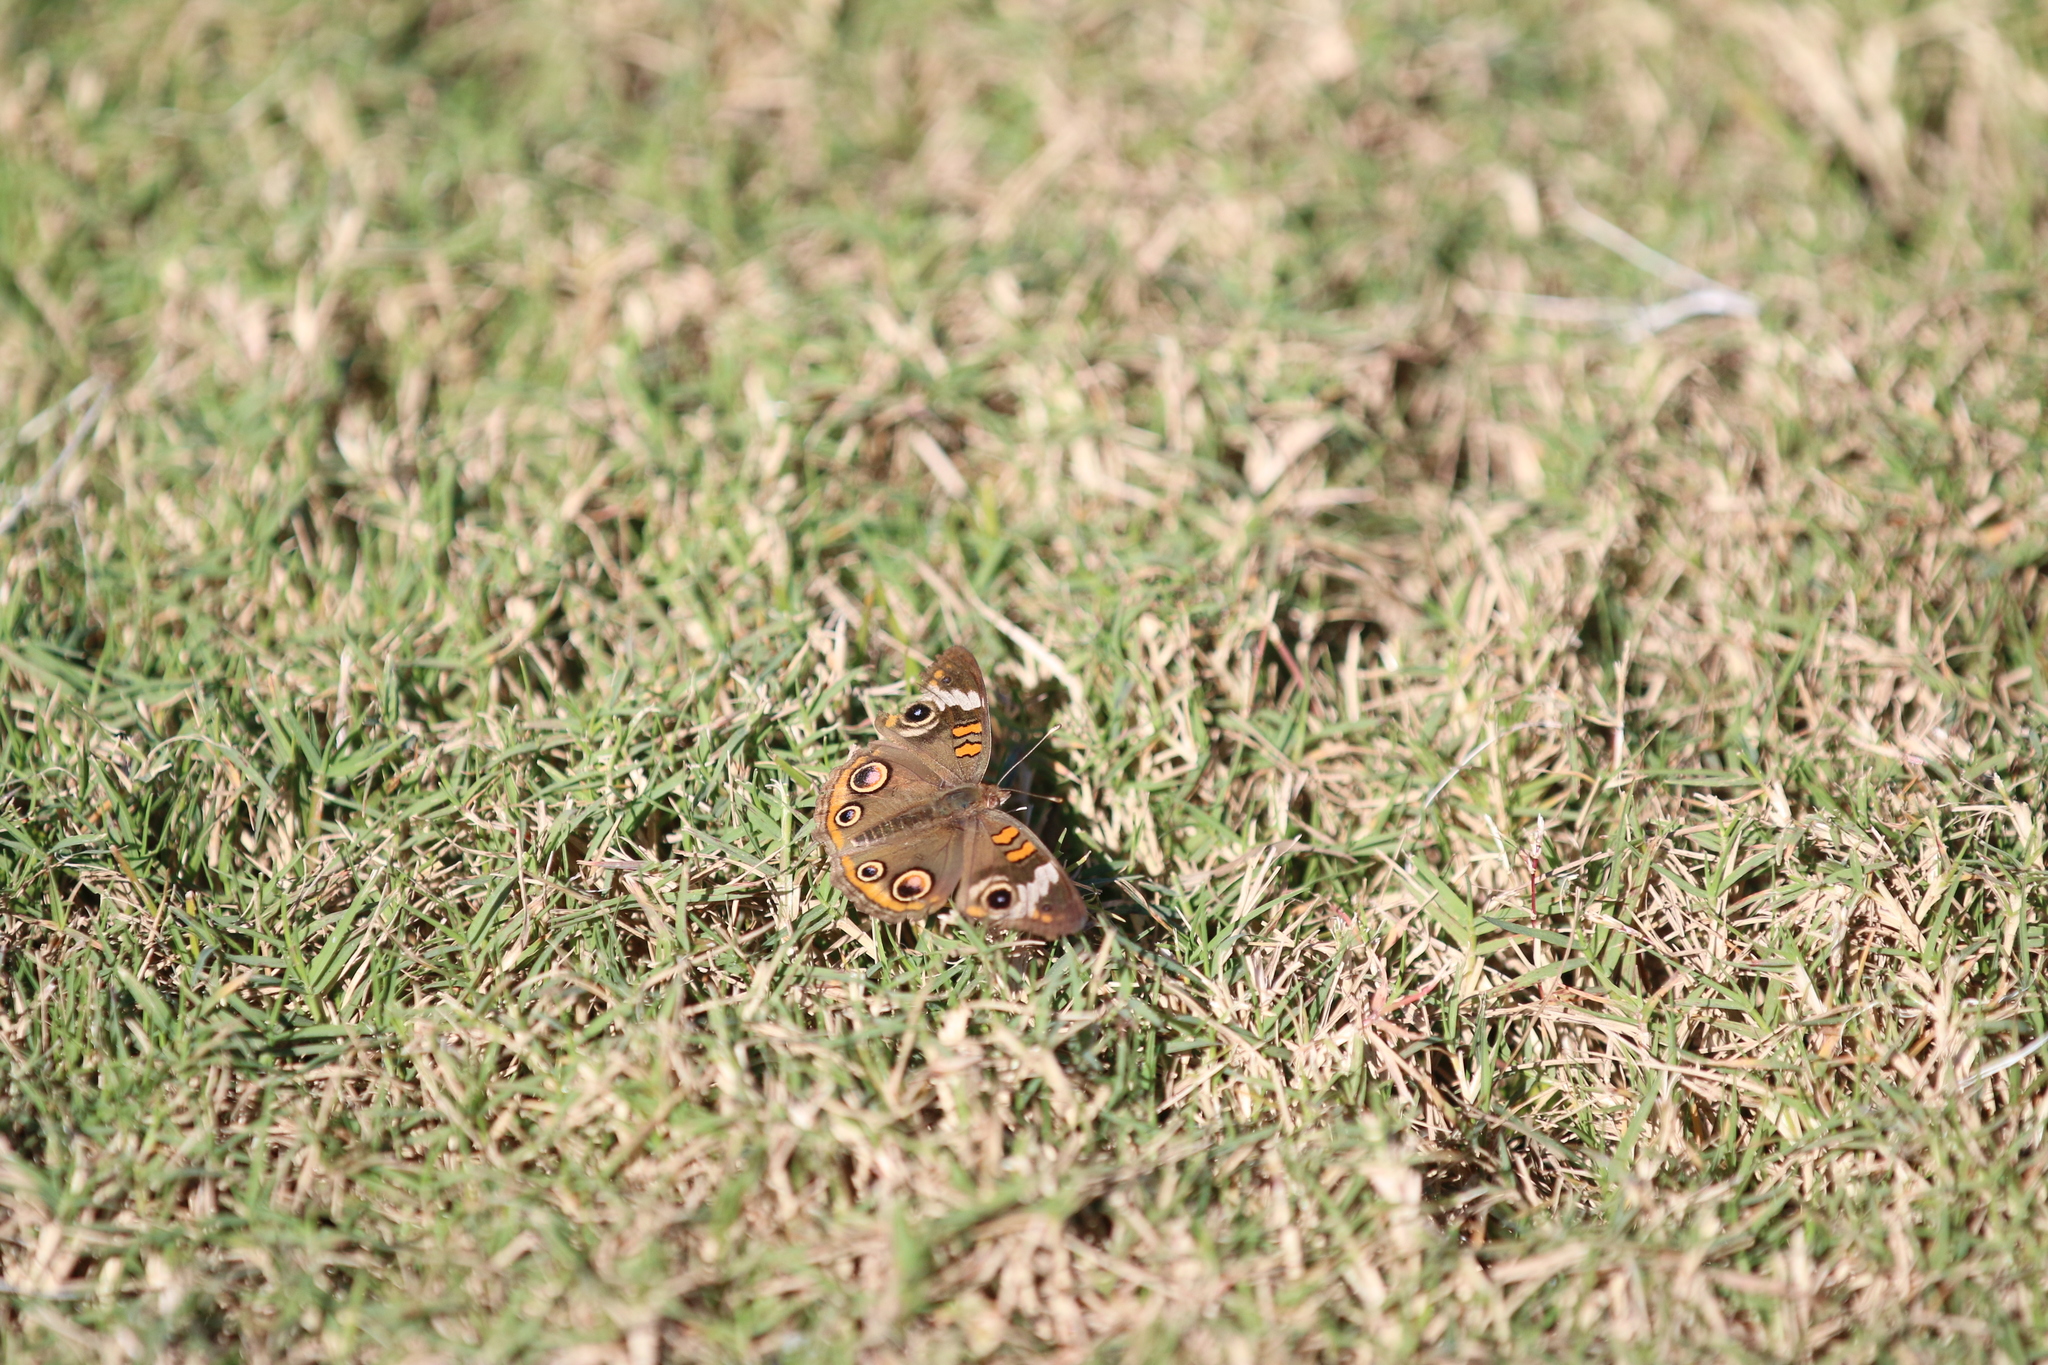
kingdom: Animalia
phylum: Arthropoda
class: Insecta
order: Lepidoptera
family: Nymphalidae
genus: Junonia
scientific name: Junonia coenia
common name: Common buckeye
